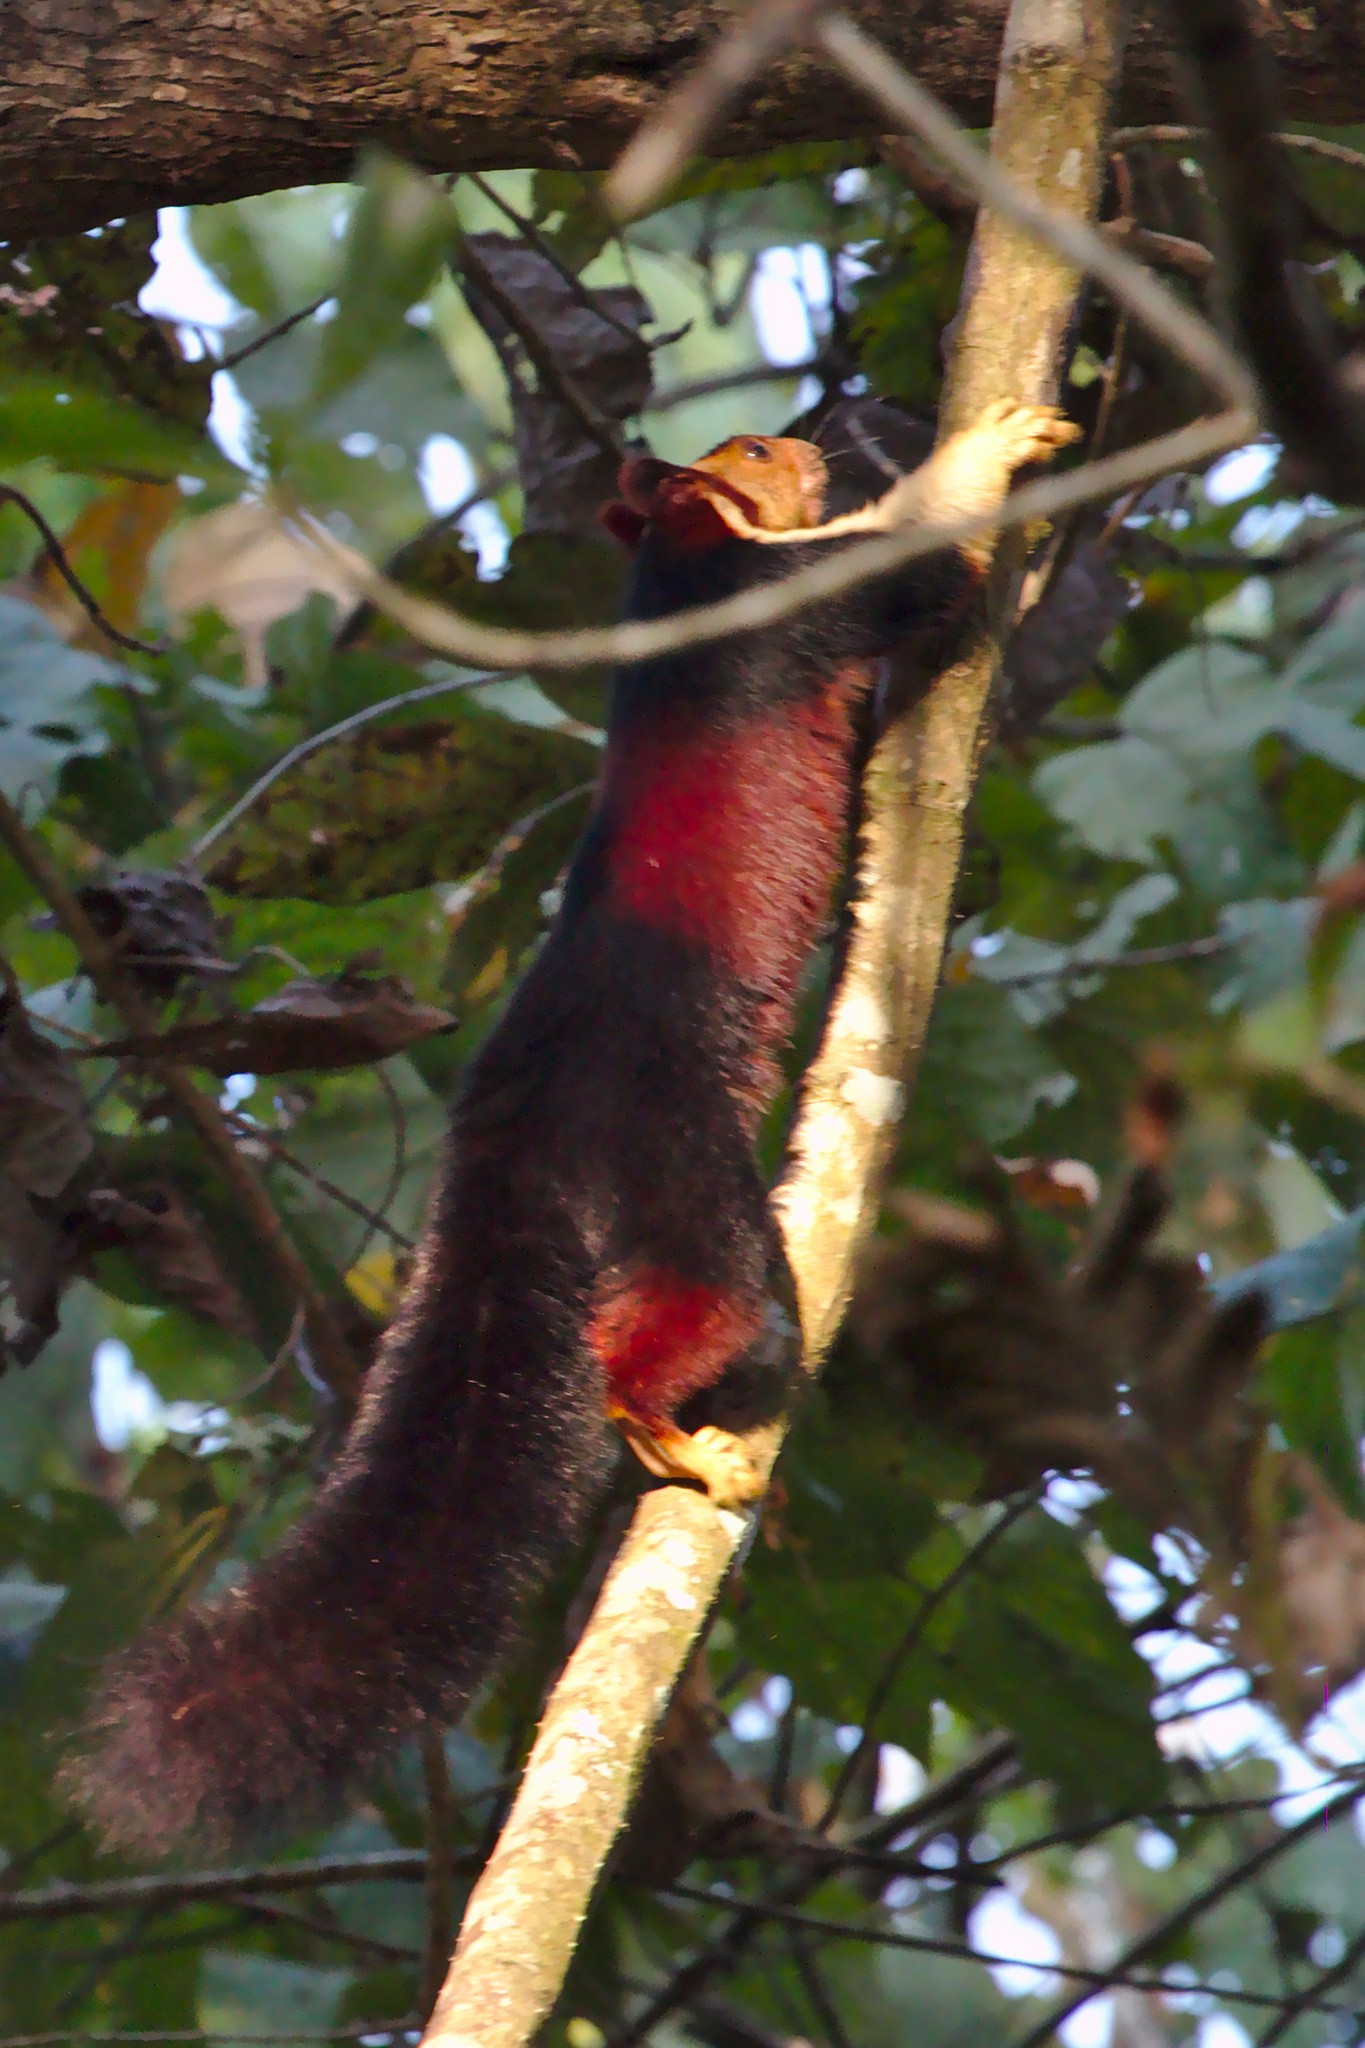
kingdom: Animalia
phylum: Chordata
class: Mammalia
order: Rodentia
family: Sciuridae
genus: Ratufa
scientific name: Ratufa indica
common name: Indian giant squirrel
